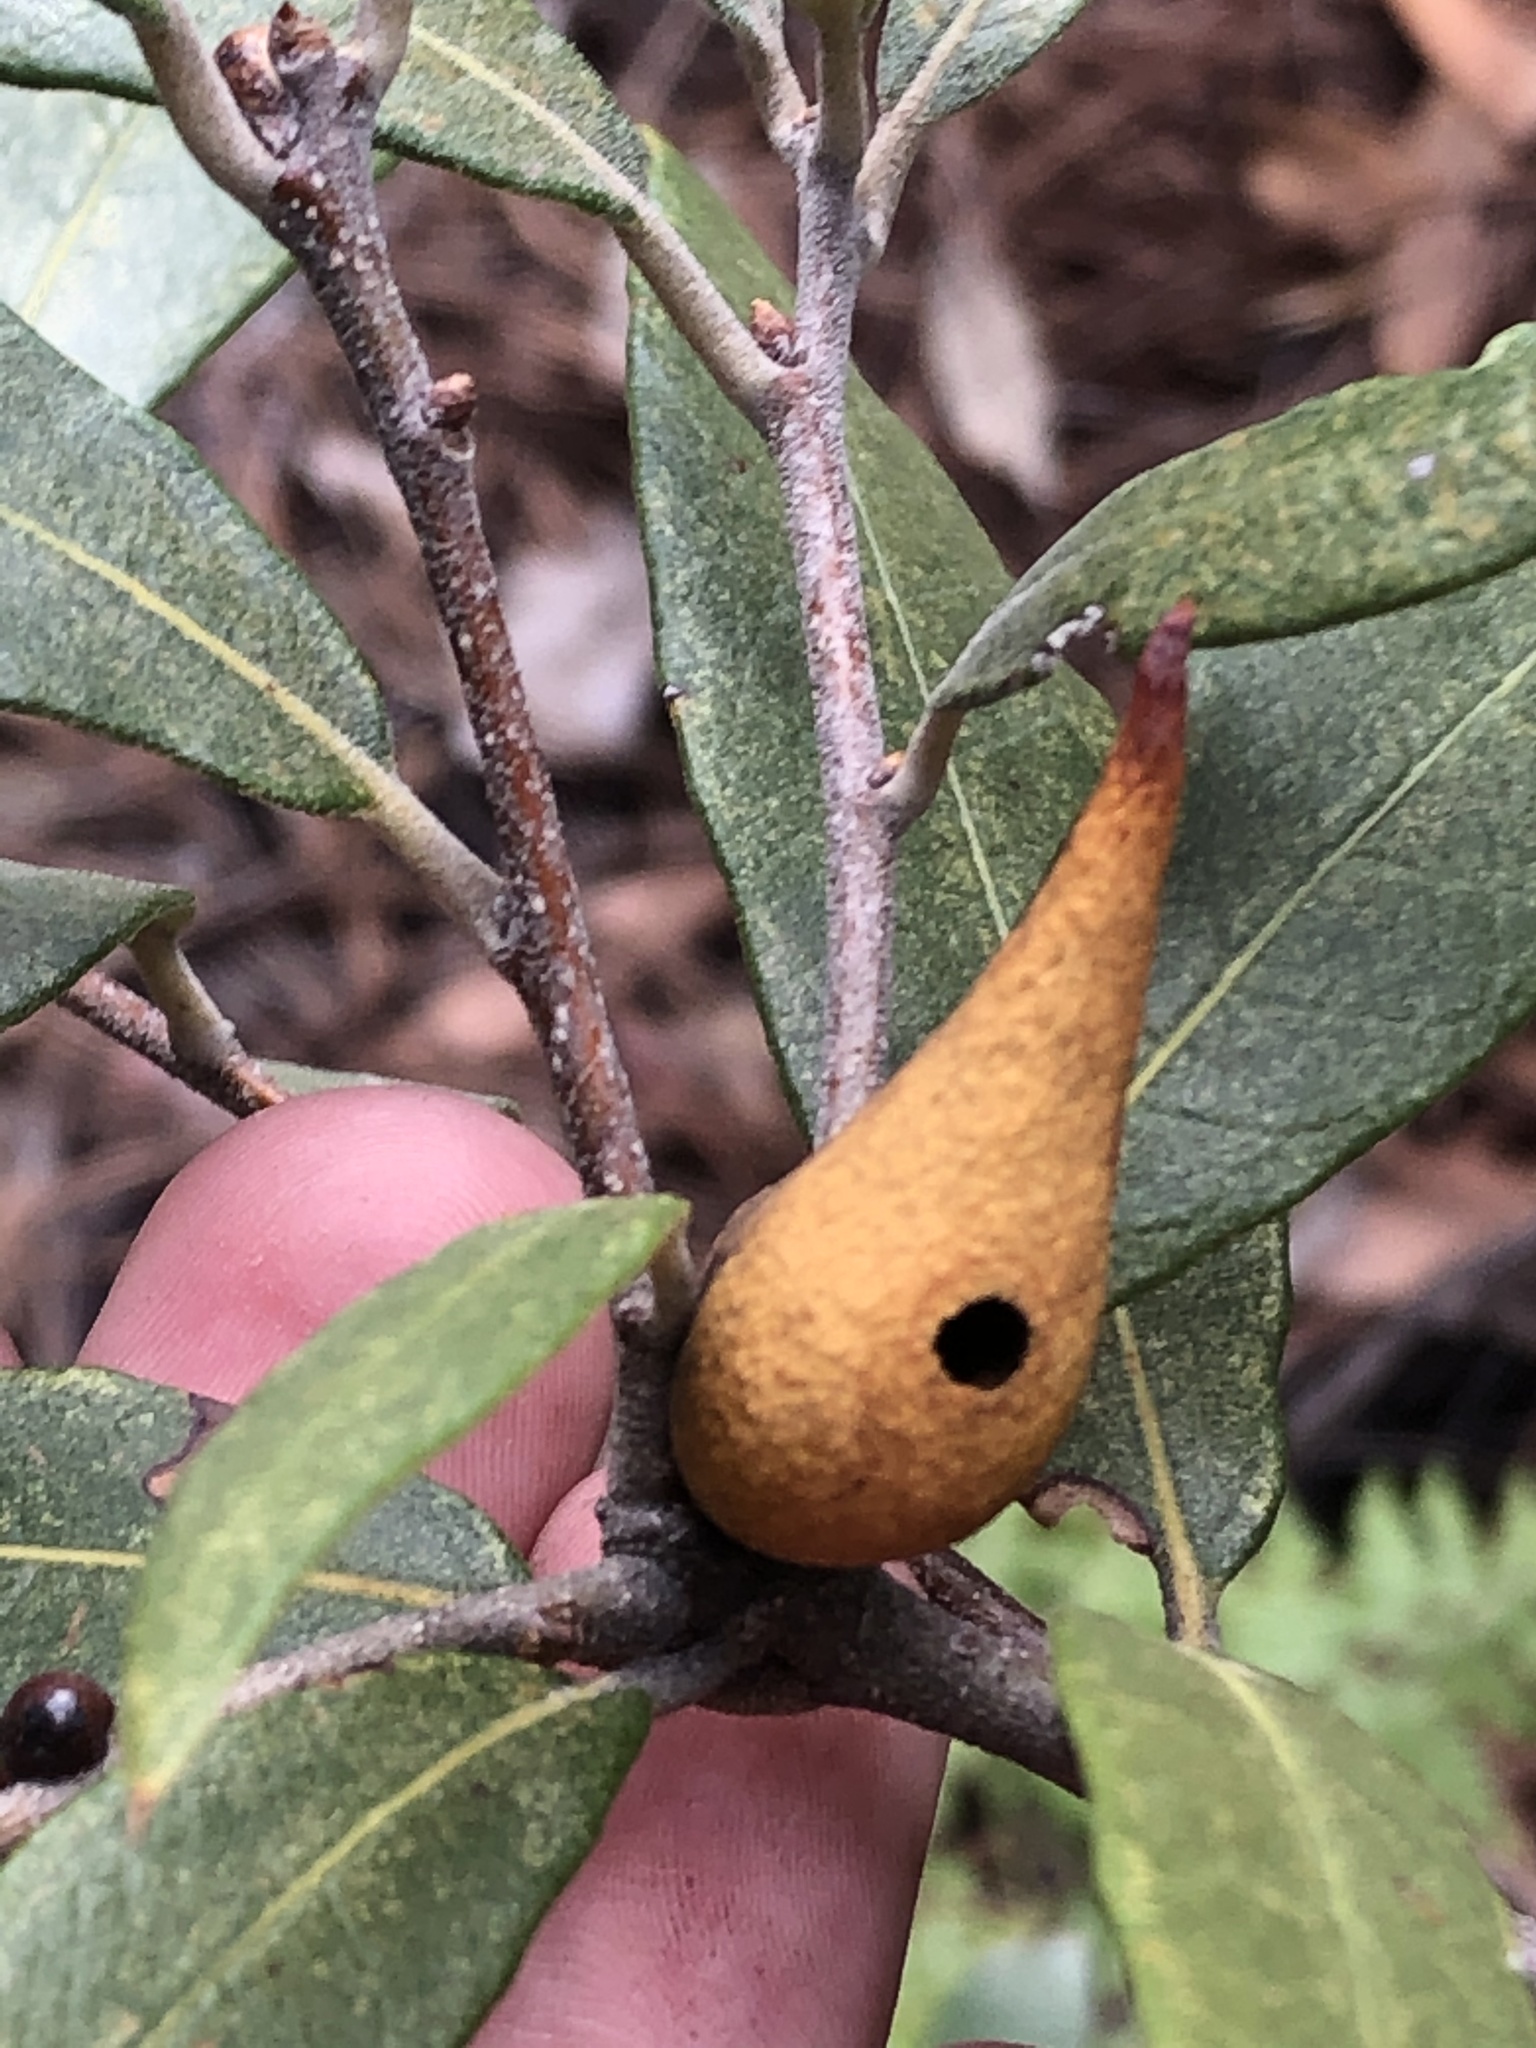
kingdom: Animalia
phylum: Arthropoda
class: Insecta
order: Hymenoptera
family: Cynipidae
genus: Amphibolips
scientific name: Amphibolips fusus
